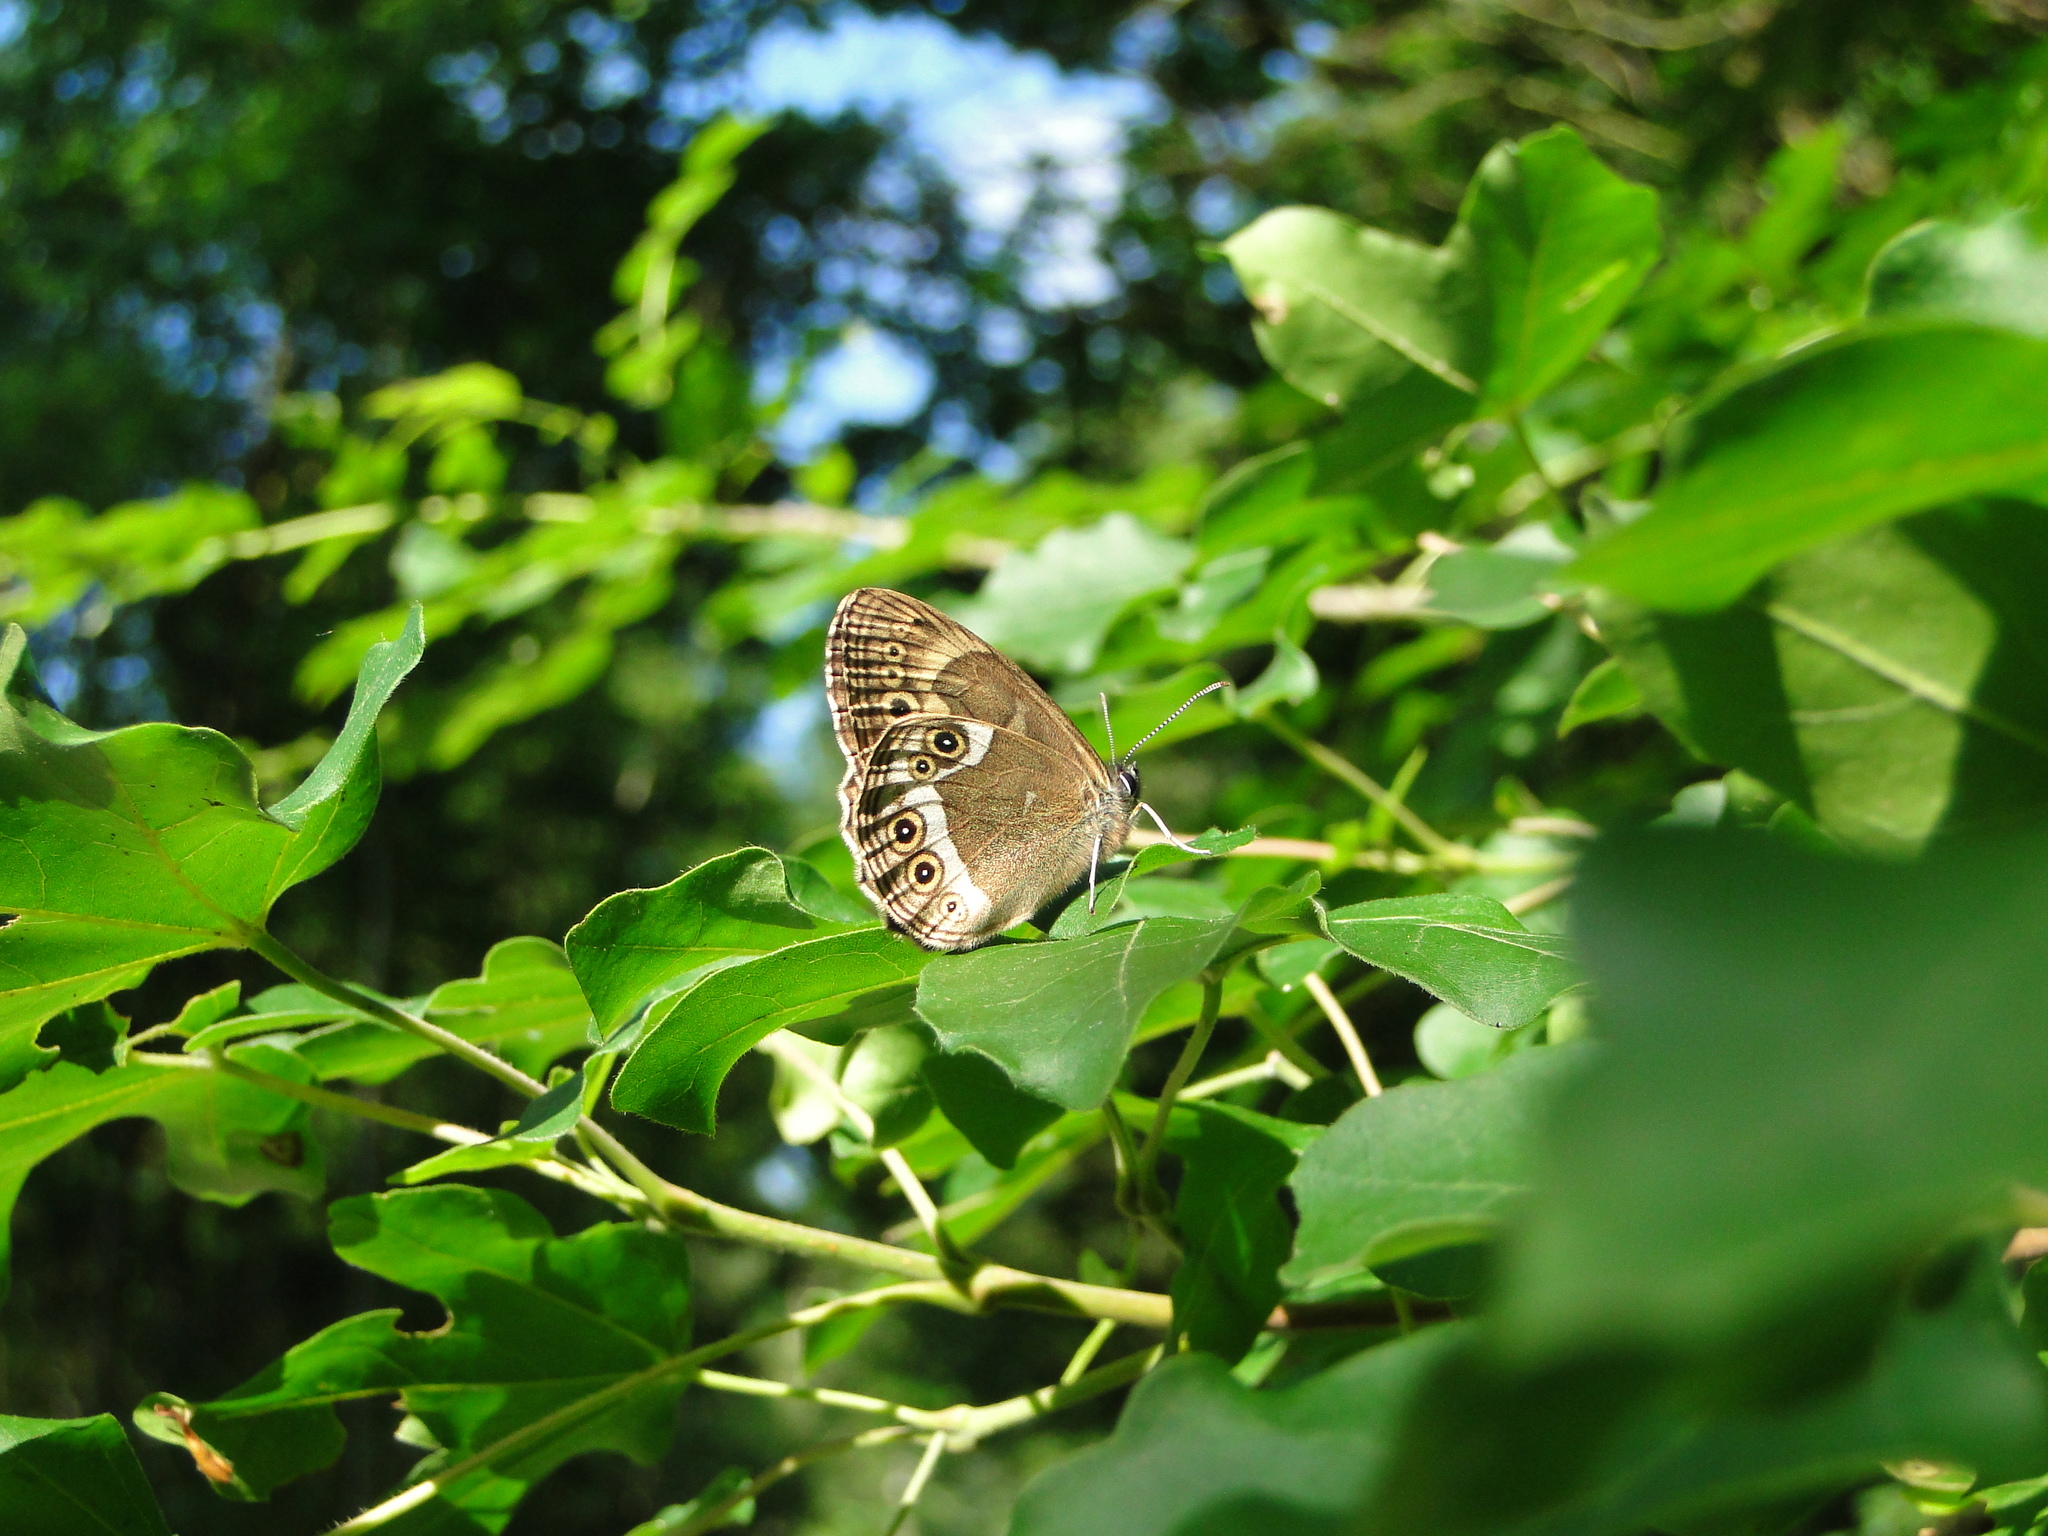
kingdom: Animalia
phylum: Arthropoda
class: Insecta
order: Lepidoptera
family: Nymphalidae
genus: Pararge
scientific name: Pararge Lopinga achine
